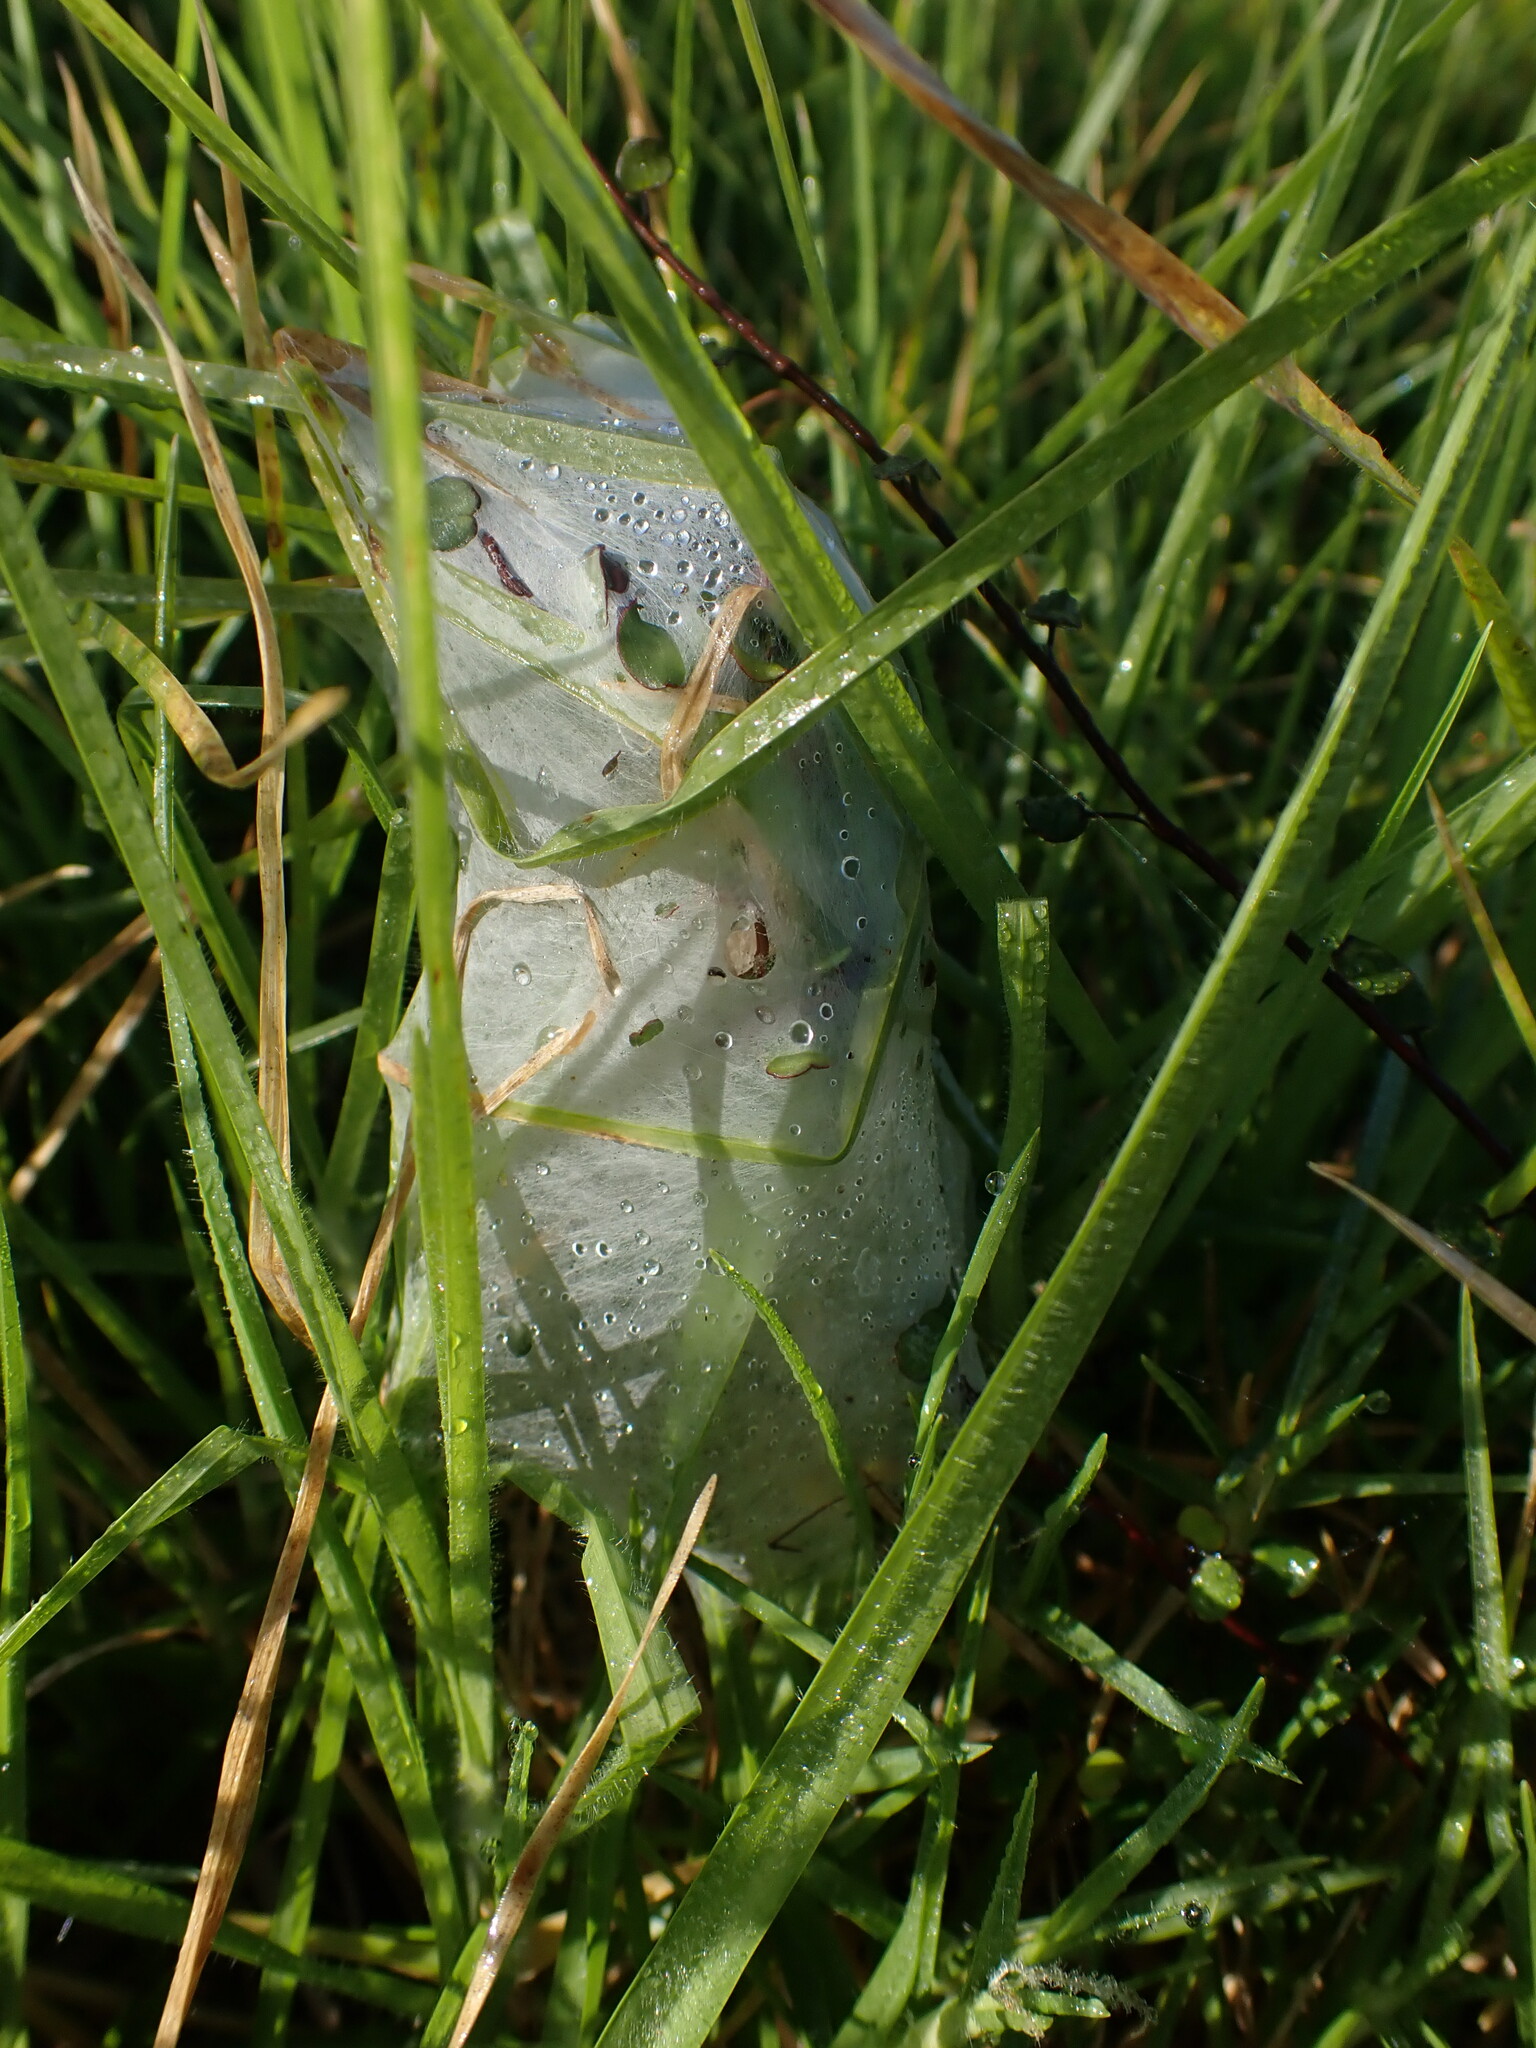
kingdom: Animalia
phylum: Arthropoda
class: Arachnida
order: Araneae
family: Pisauridae
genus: Dolomedes
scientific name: Dolomedes minor
